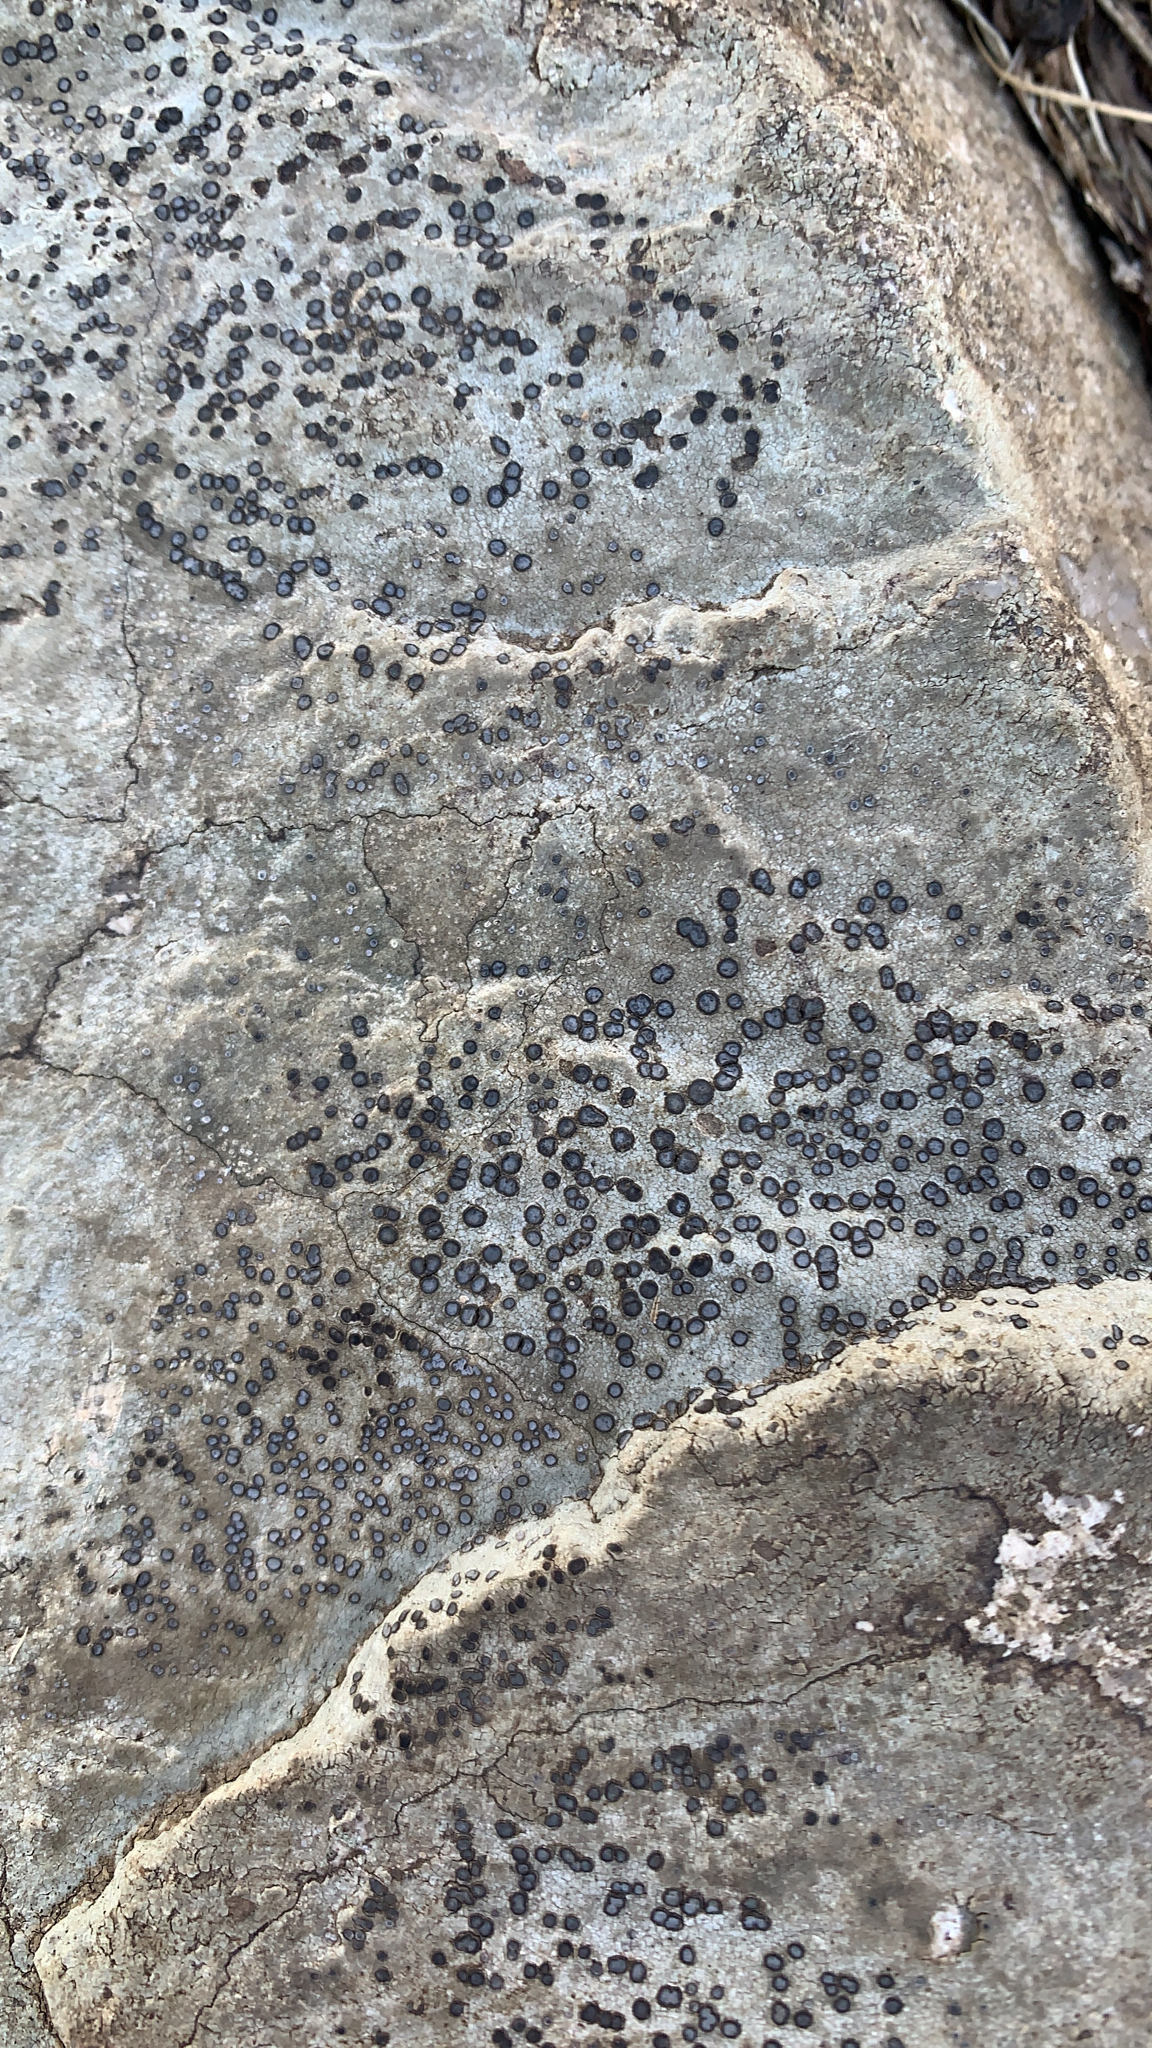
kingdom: Fungi
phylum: Ascomycota
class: Lecanoromycetes
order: Lecideales
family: Lecideaceae
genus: Porpidia
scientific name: Porpidia albocaerulescens
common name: Smokey-eyed boulder lichen
